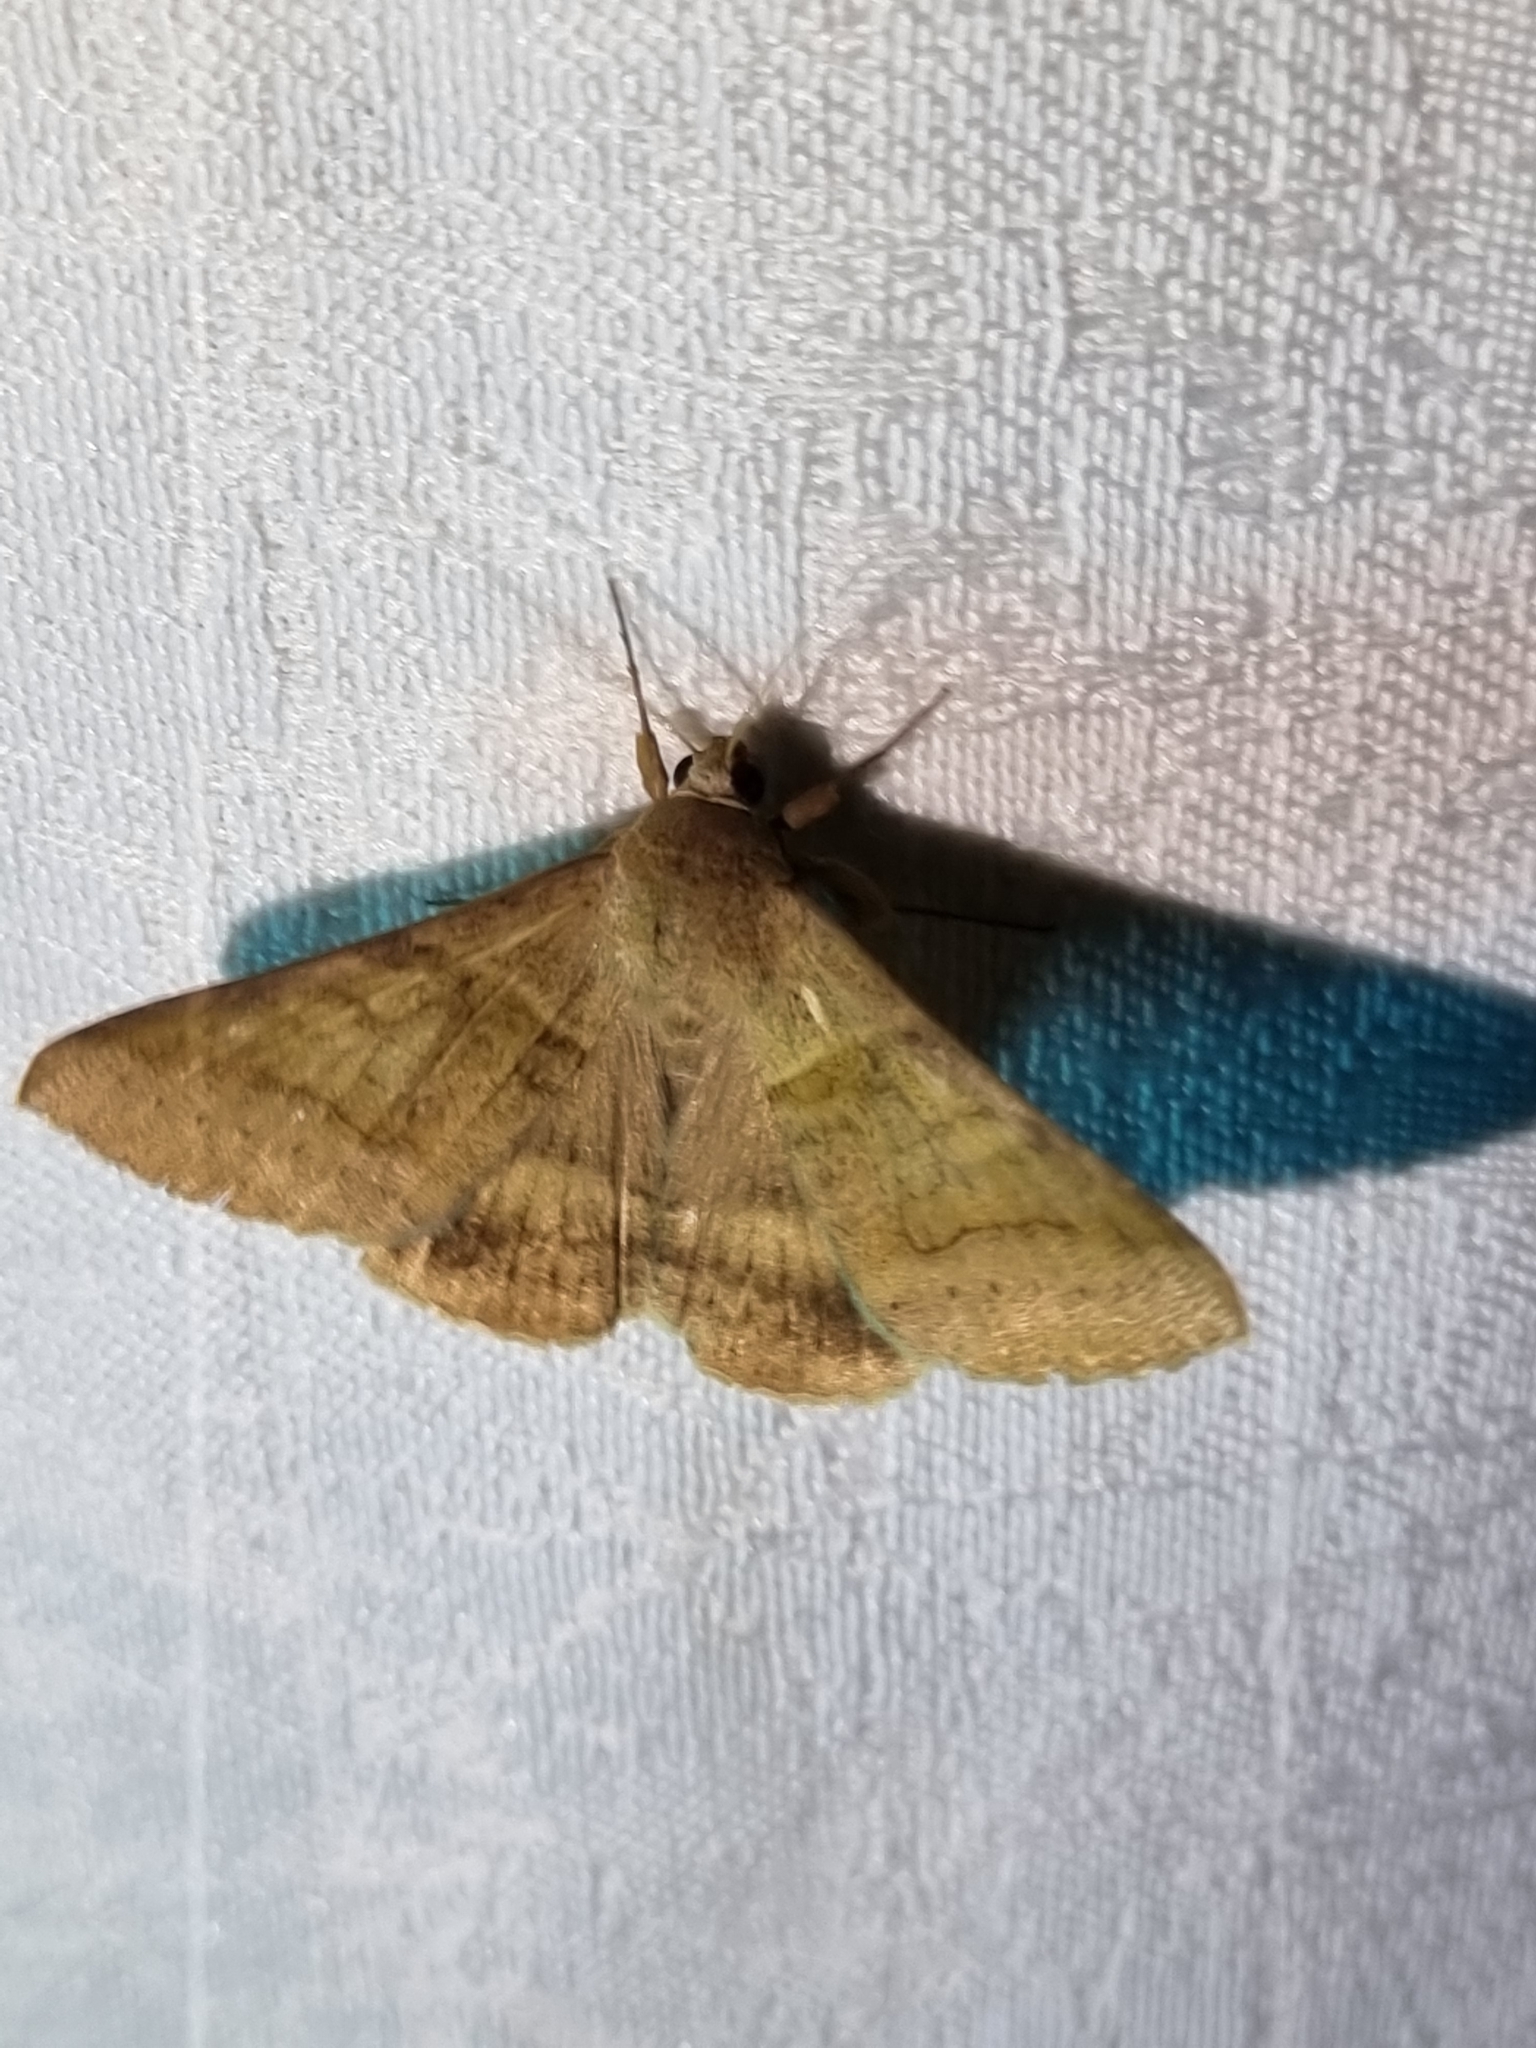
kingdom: Animalia
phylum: Arthropoda
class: Insecta
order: Lepidoptera
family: Erebidae
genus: Mocis
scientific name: Mocis trifasciata
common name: Triple-barred
